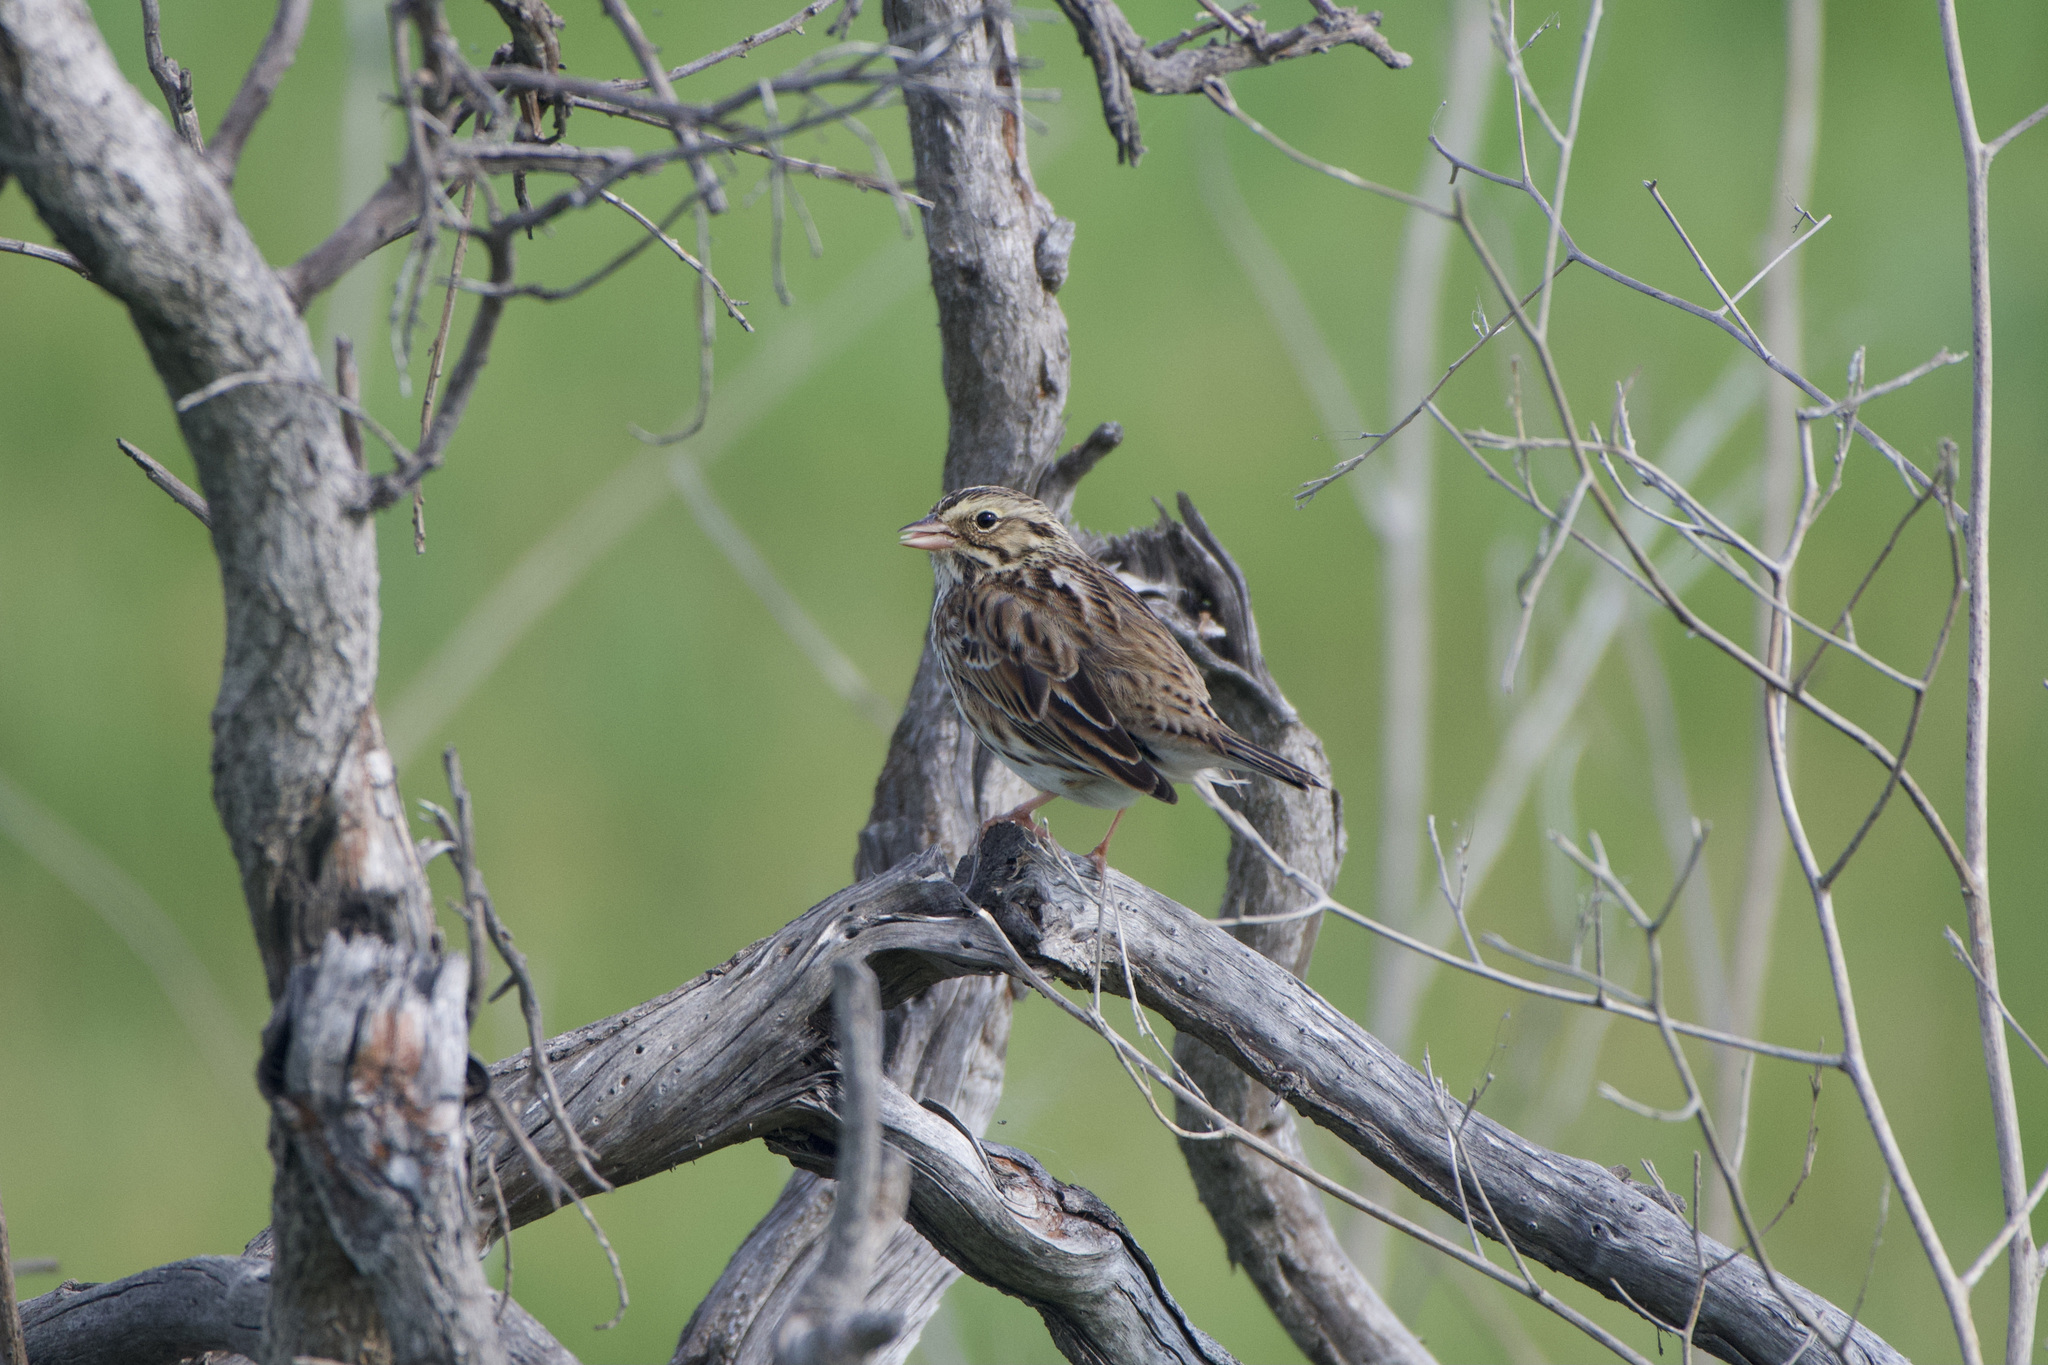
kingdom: Animalia
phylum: Chordata
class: Aves
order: Passeriformes
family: Passerellidae
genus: Passerculus
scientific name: Passerculus sandwichensis
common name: Savannah sparrow
